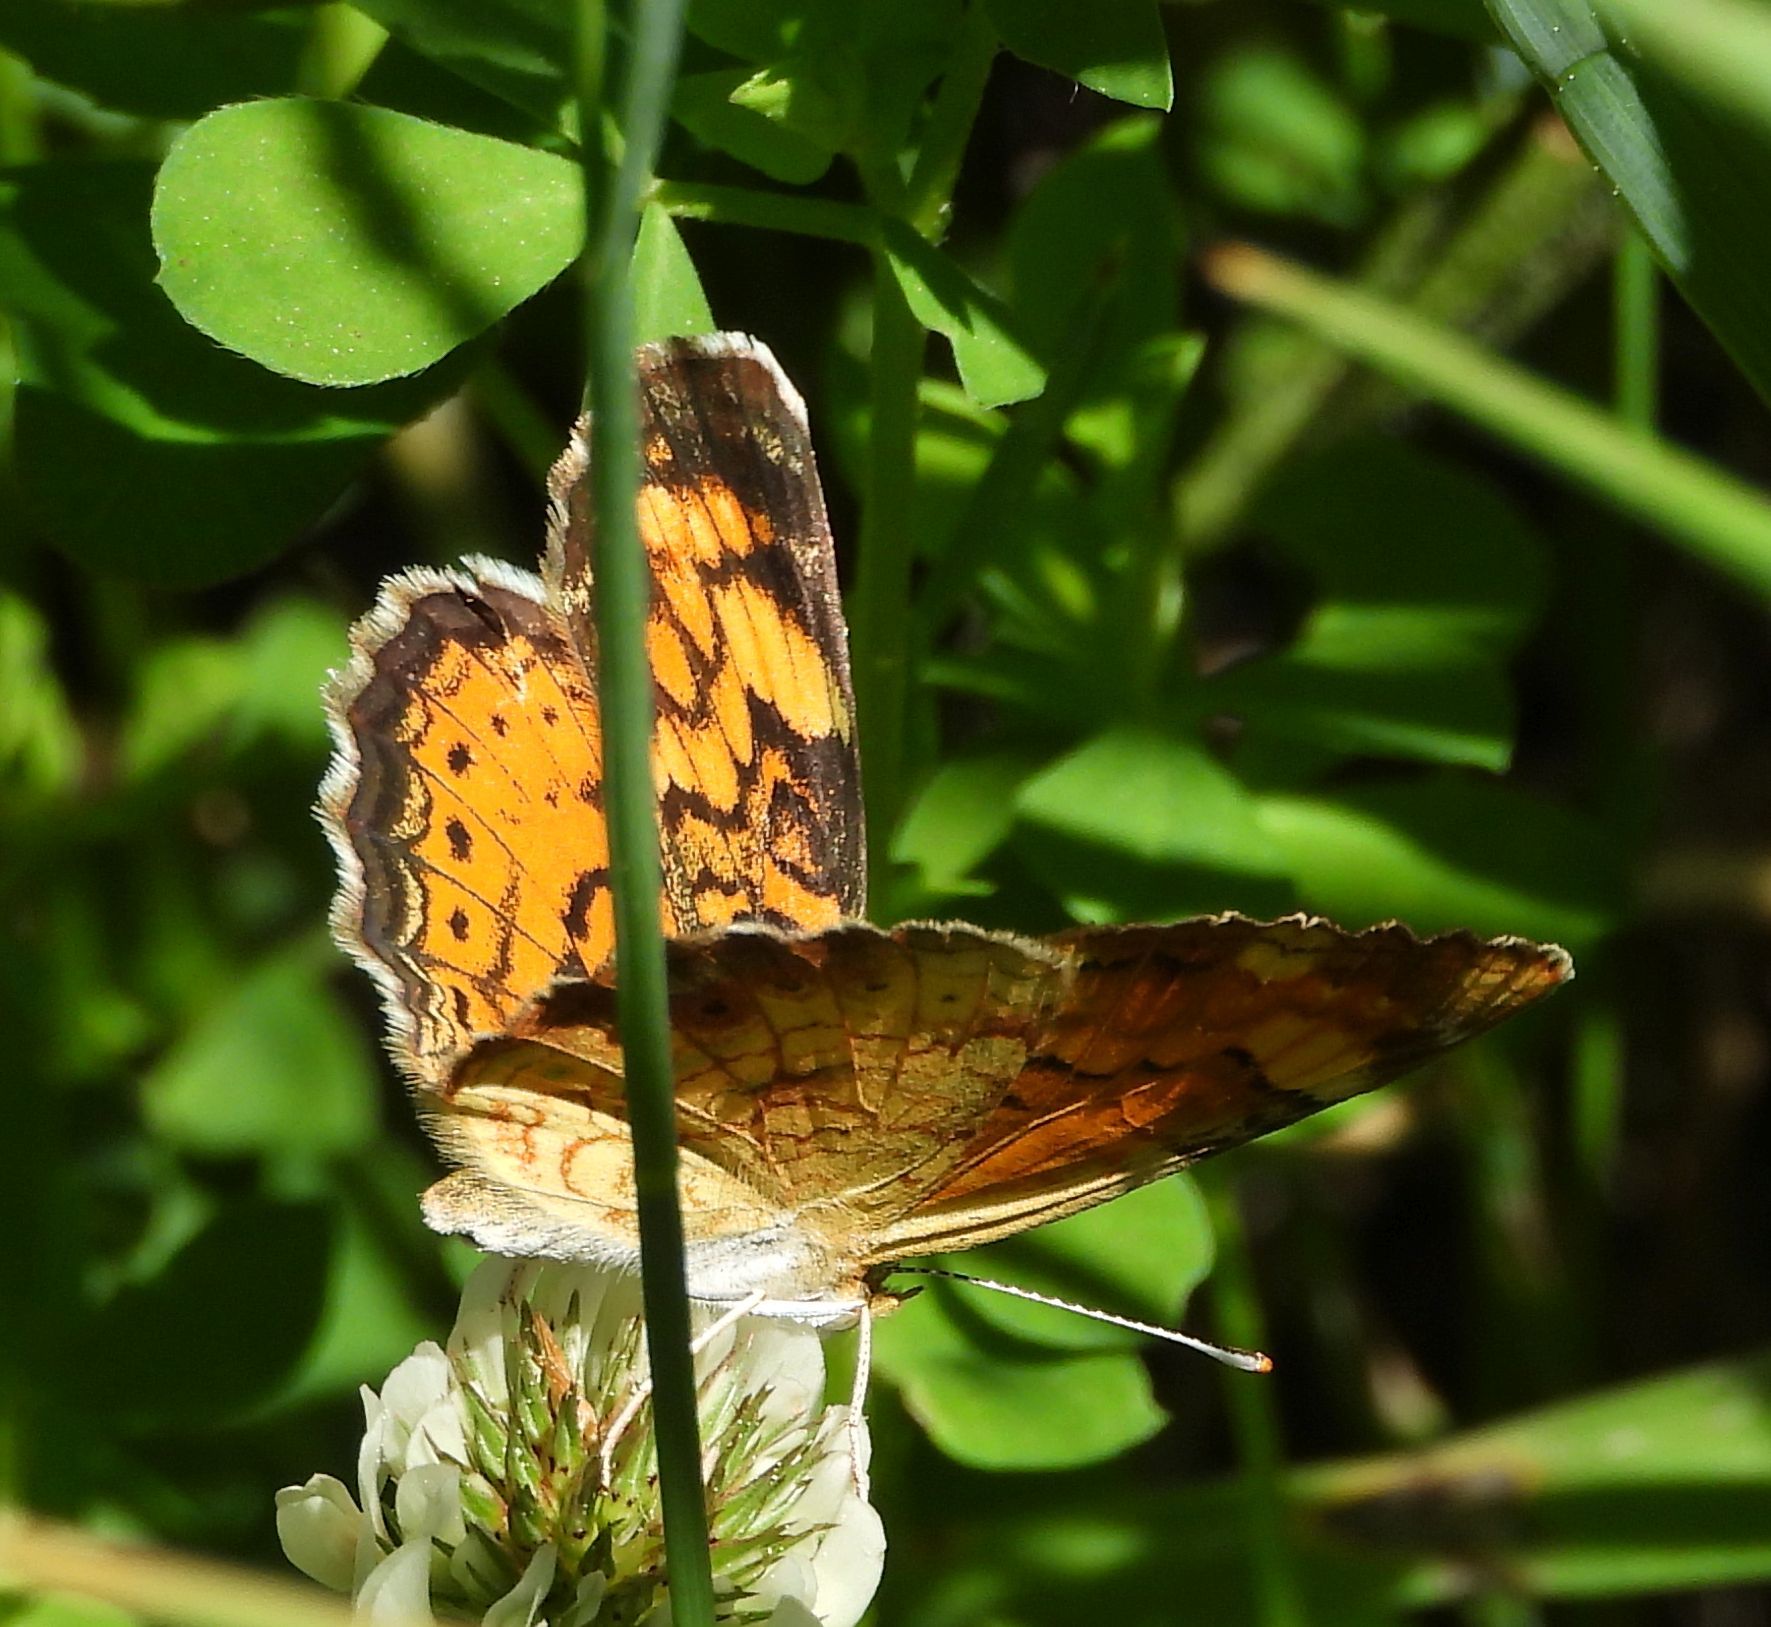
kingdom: Animalia
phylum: Arthropoda
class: Insecta
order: Lepidoptera
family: Nymphalidae
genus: Phyciodes
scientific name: Phyciodes tharos
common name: Pearl crescent
